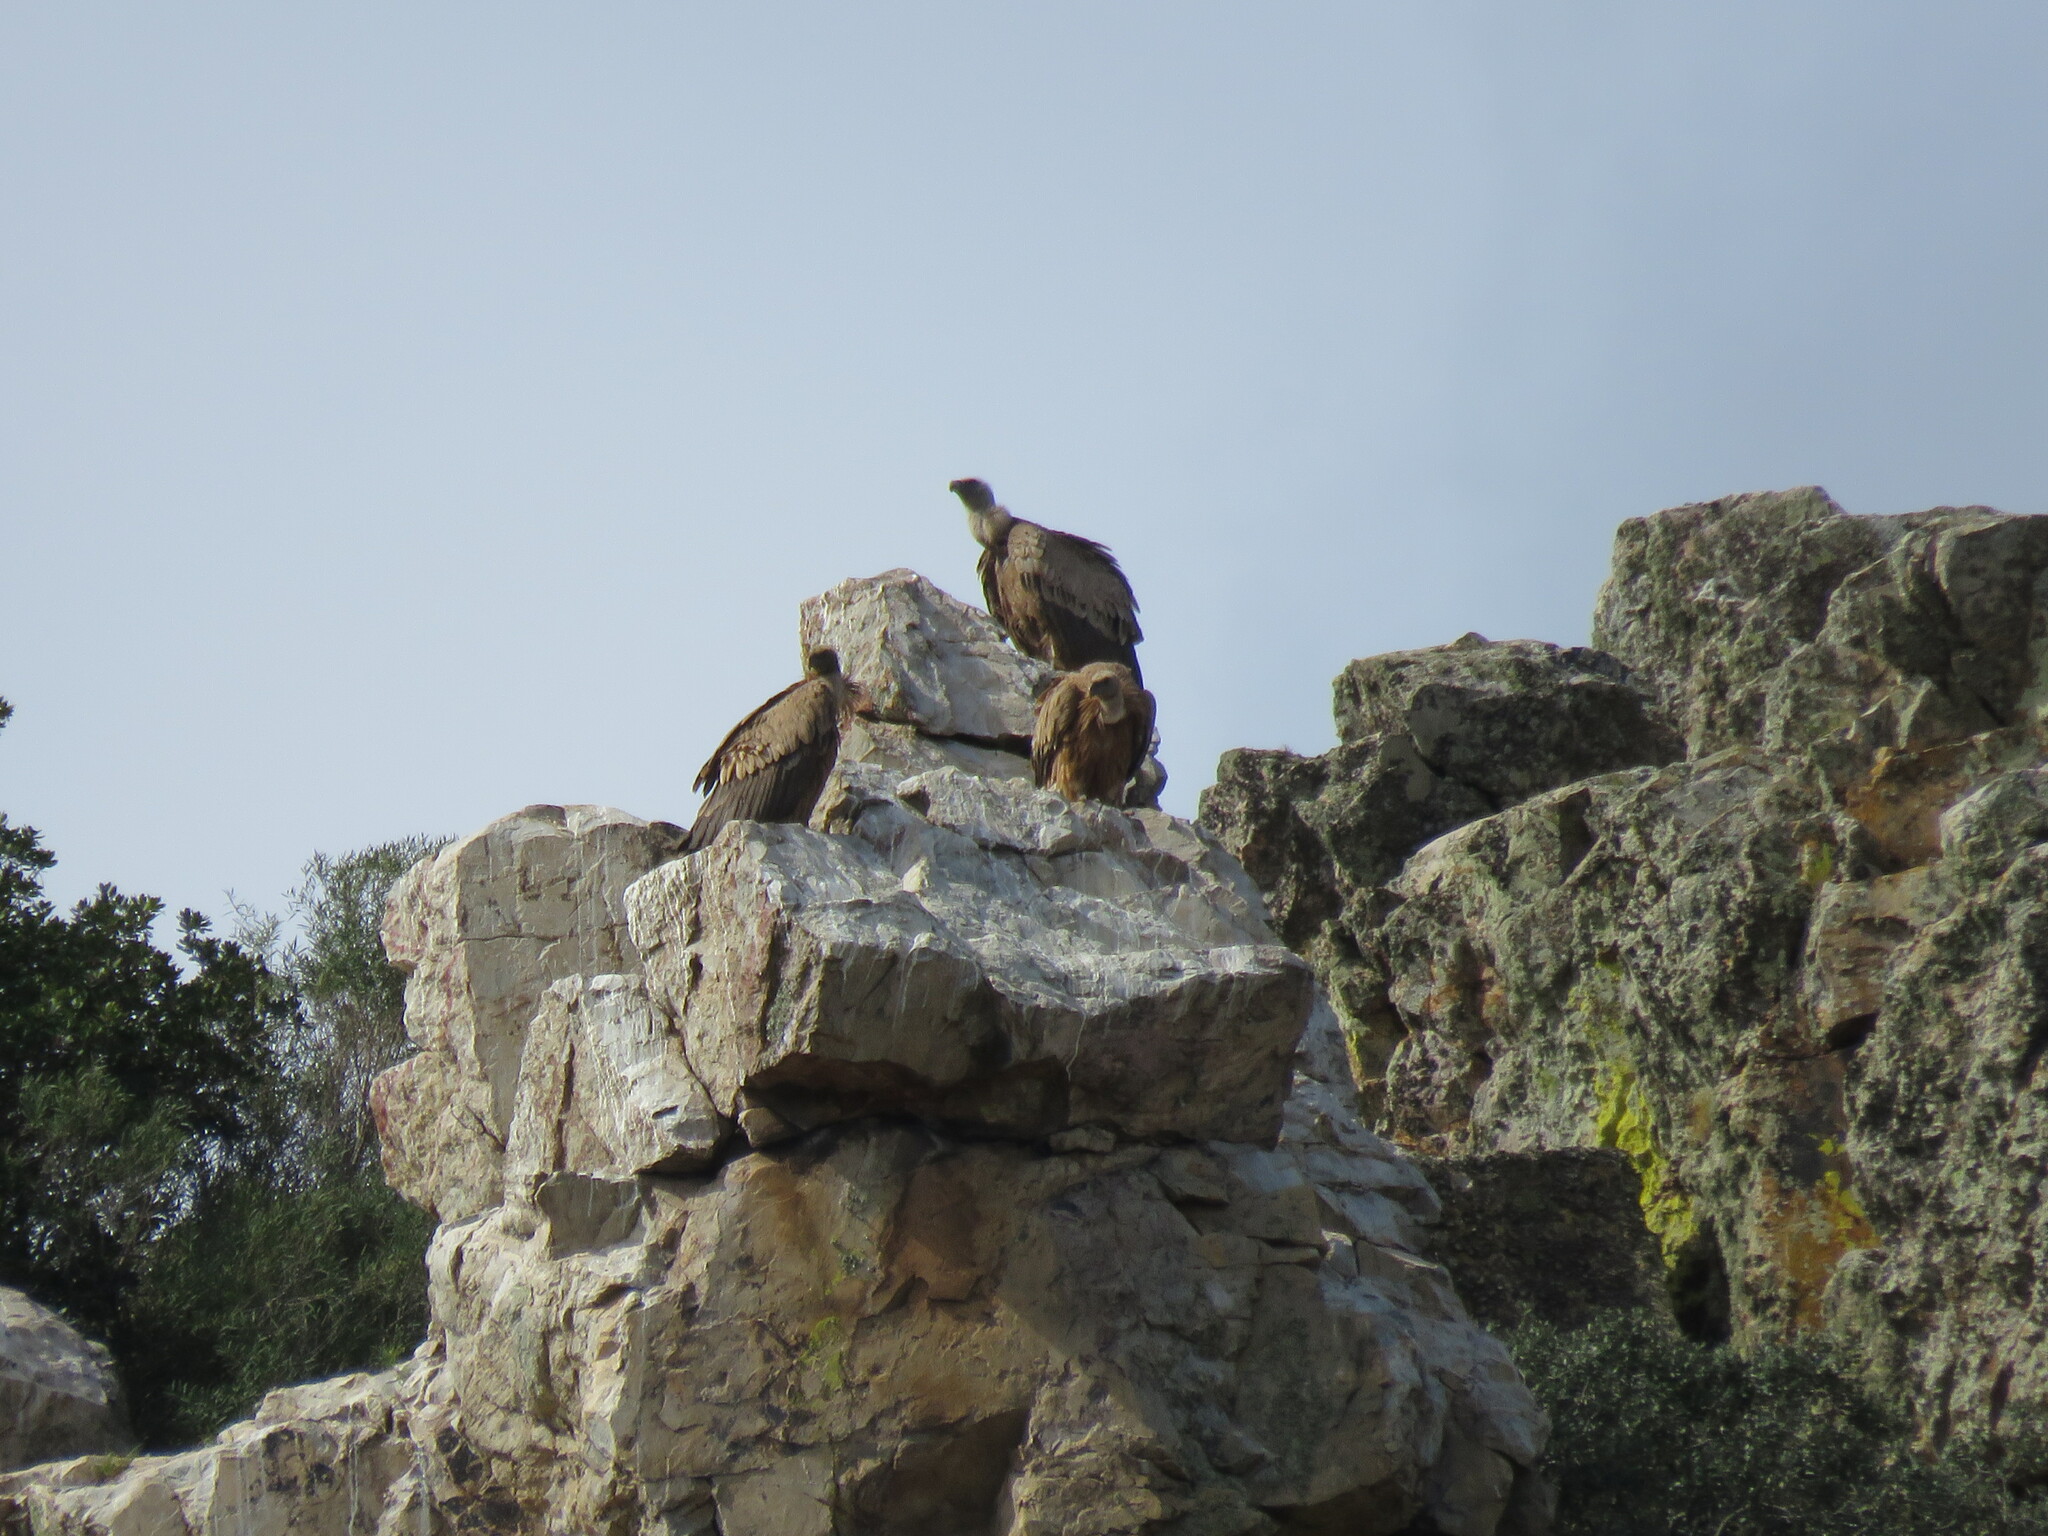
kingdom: Animalia
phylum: Chordata
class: Aves
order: Accipitriformes
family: Accipitridae
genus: Gyps
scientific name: Gyps fulvus
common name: Griffon vulture
